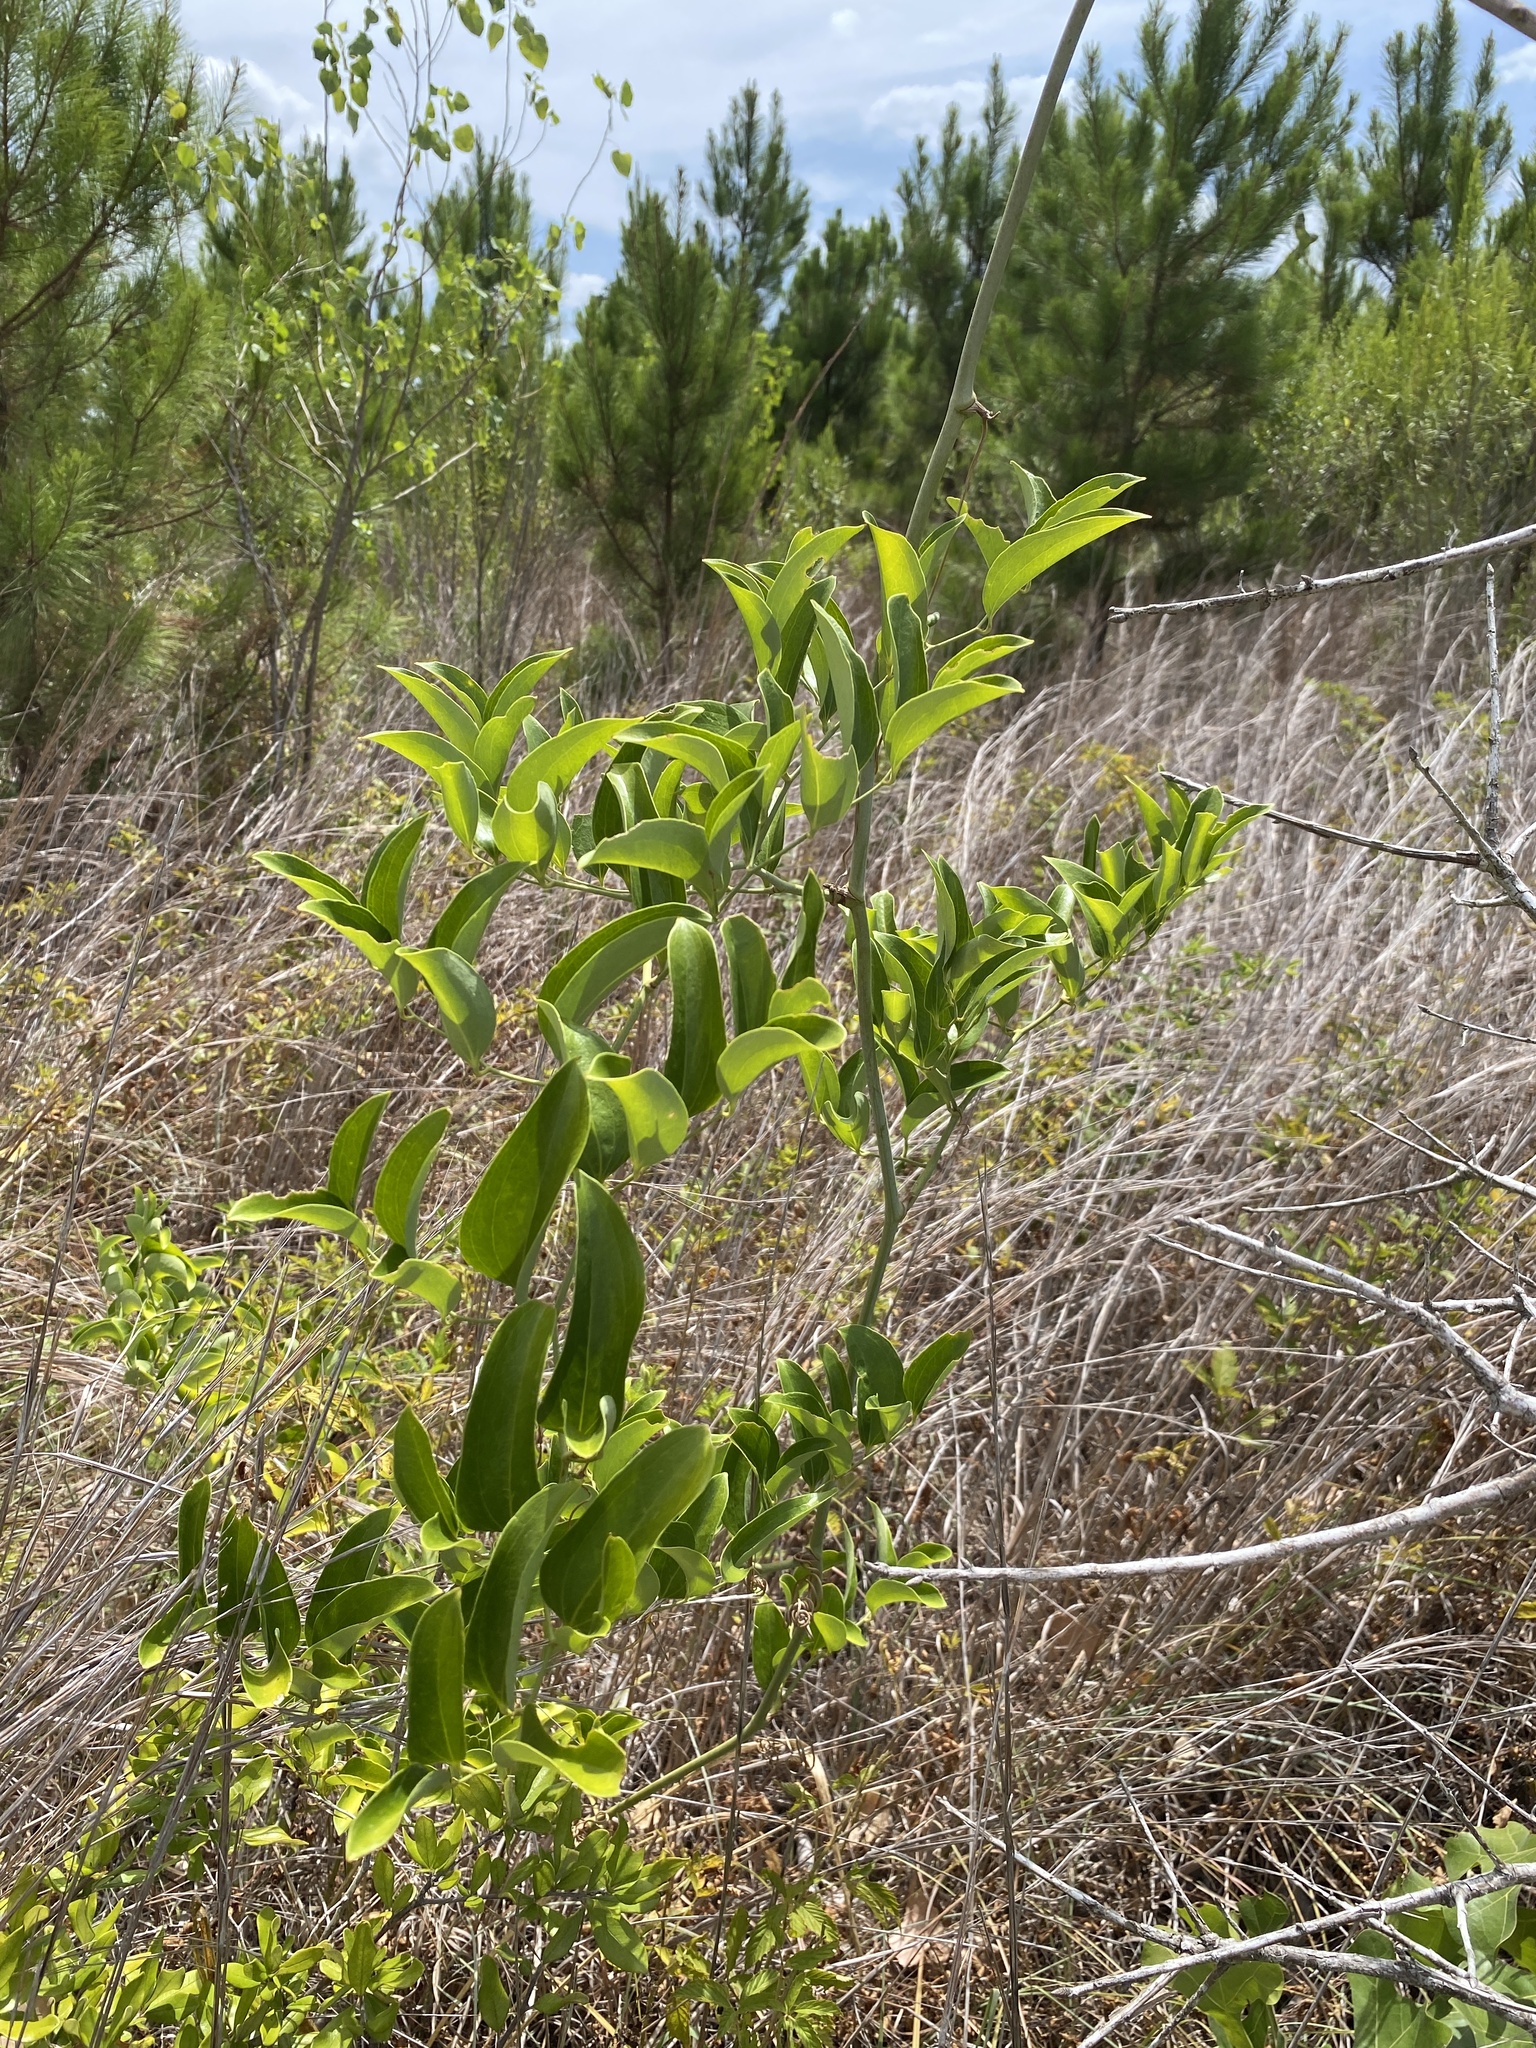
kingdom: Plantae
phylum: Tracheophyta
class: Liliopsida
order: Liliales
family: Smilacaceae
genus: Smilax
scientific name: Smilax maritima
